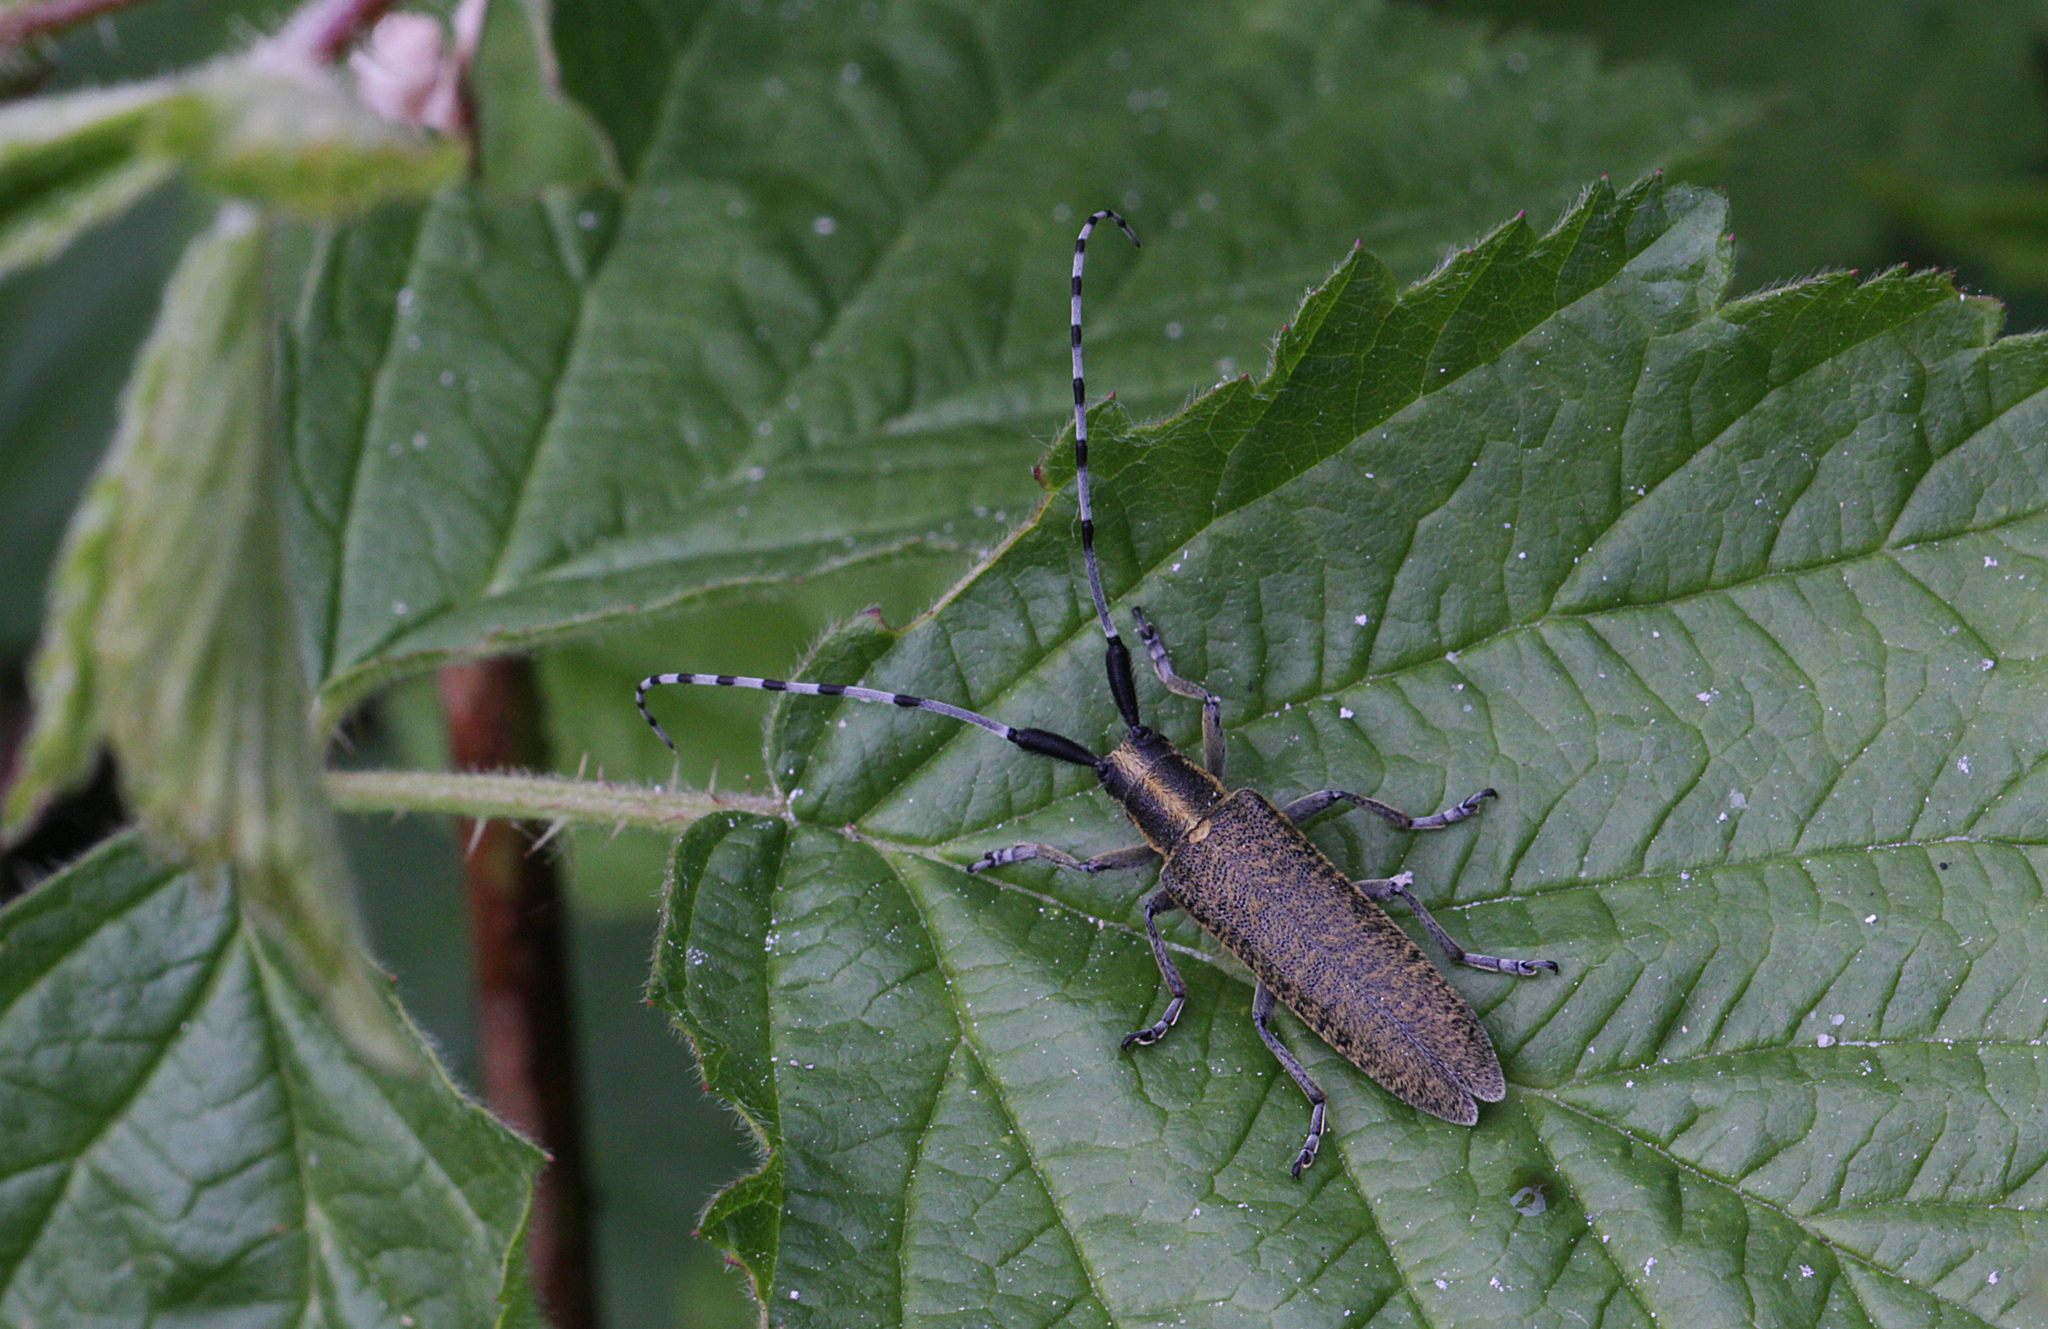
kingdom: Animalia
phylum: Arthropoda
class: Insecta
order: Coleoptera
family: Cerambycidae
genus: Agapanthia
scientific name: Agapanthia villosoviridescens
